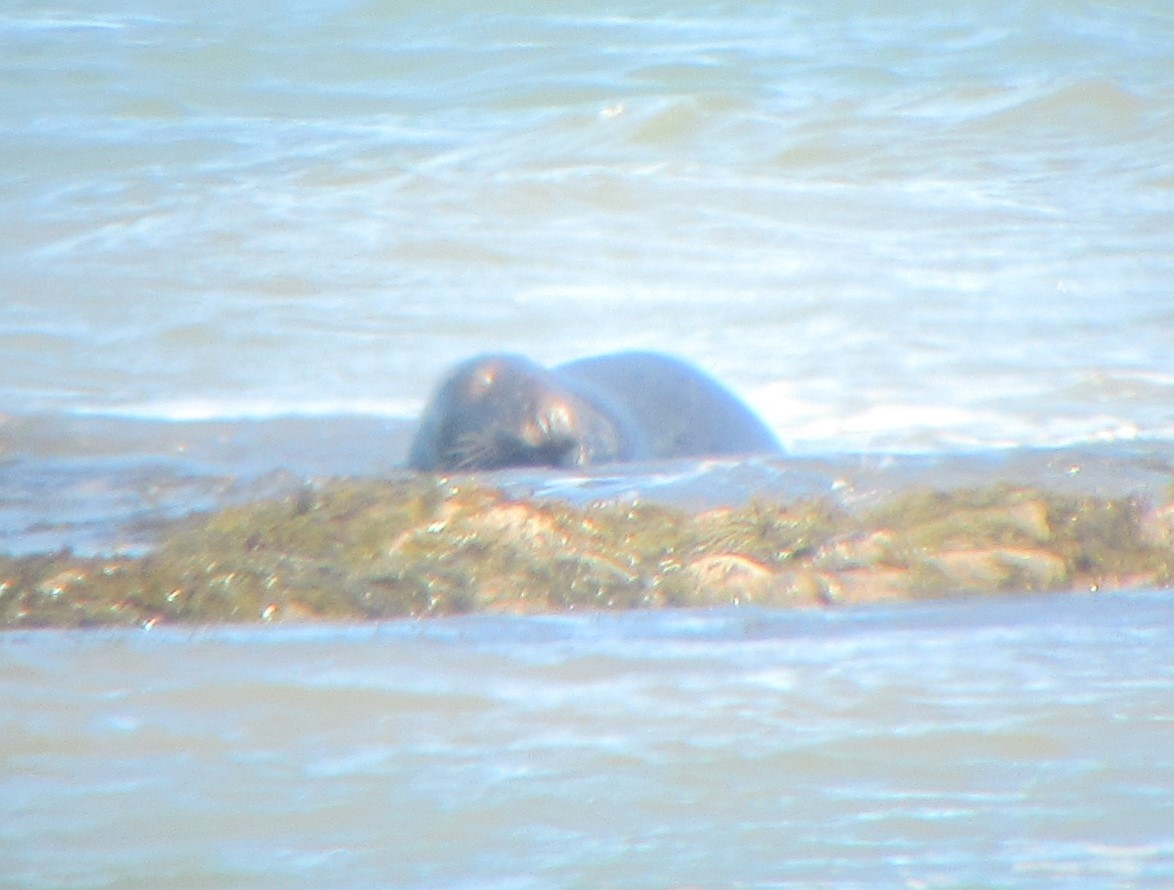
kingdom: Animalia
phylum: Chordata
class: Mammalia
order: Carnivora
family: Phocidae
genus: Halichoerus
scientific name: Halichoerus grypus
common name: Grey seal
